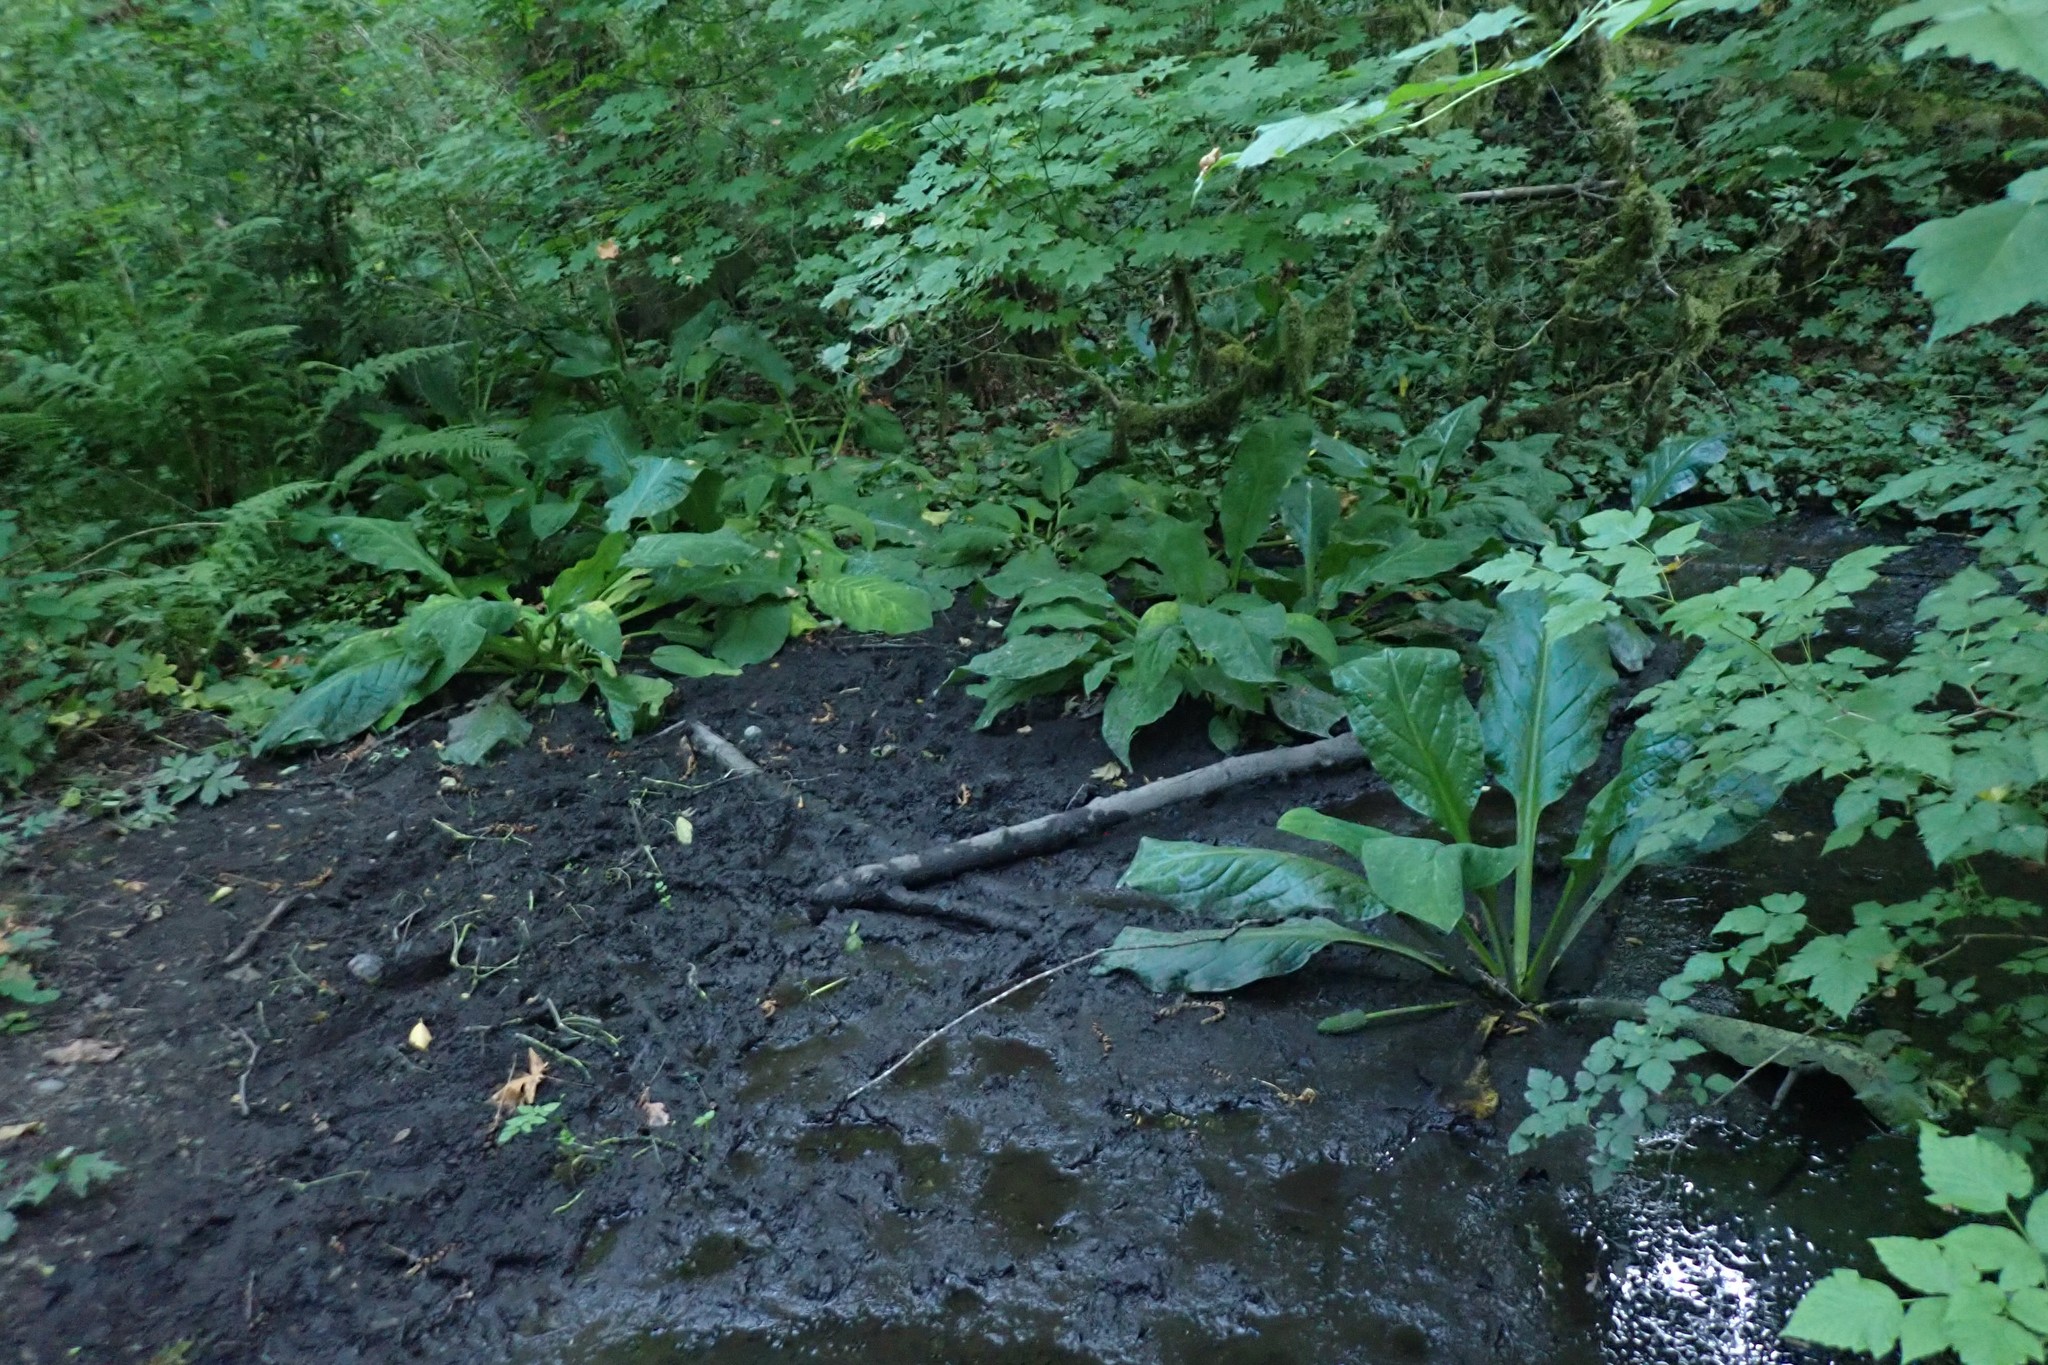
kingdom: Plantae
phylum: Tracheophyta
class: Liliopsida
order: Alismatales
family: Araceae
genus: Lysichiton
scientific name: Lysichiton americanus
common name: American skunk cabbage
